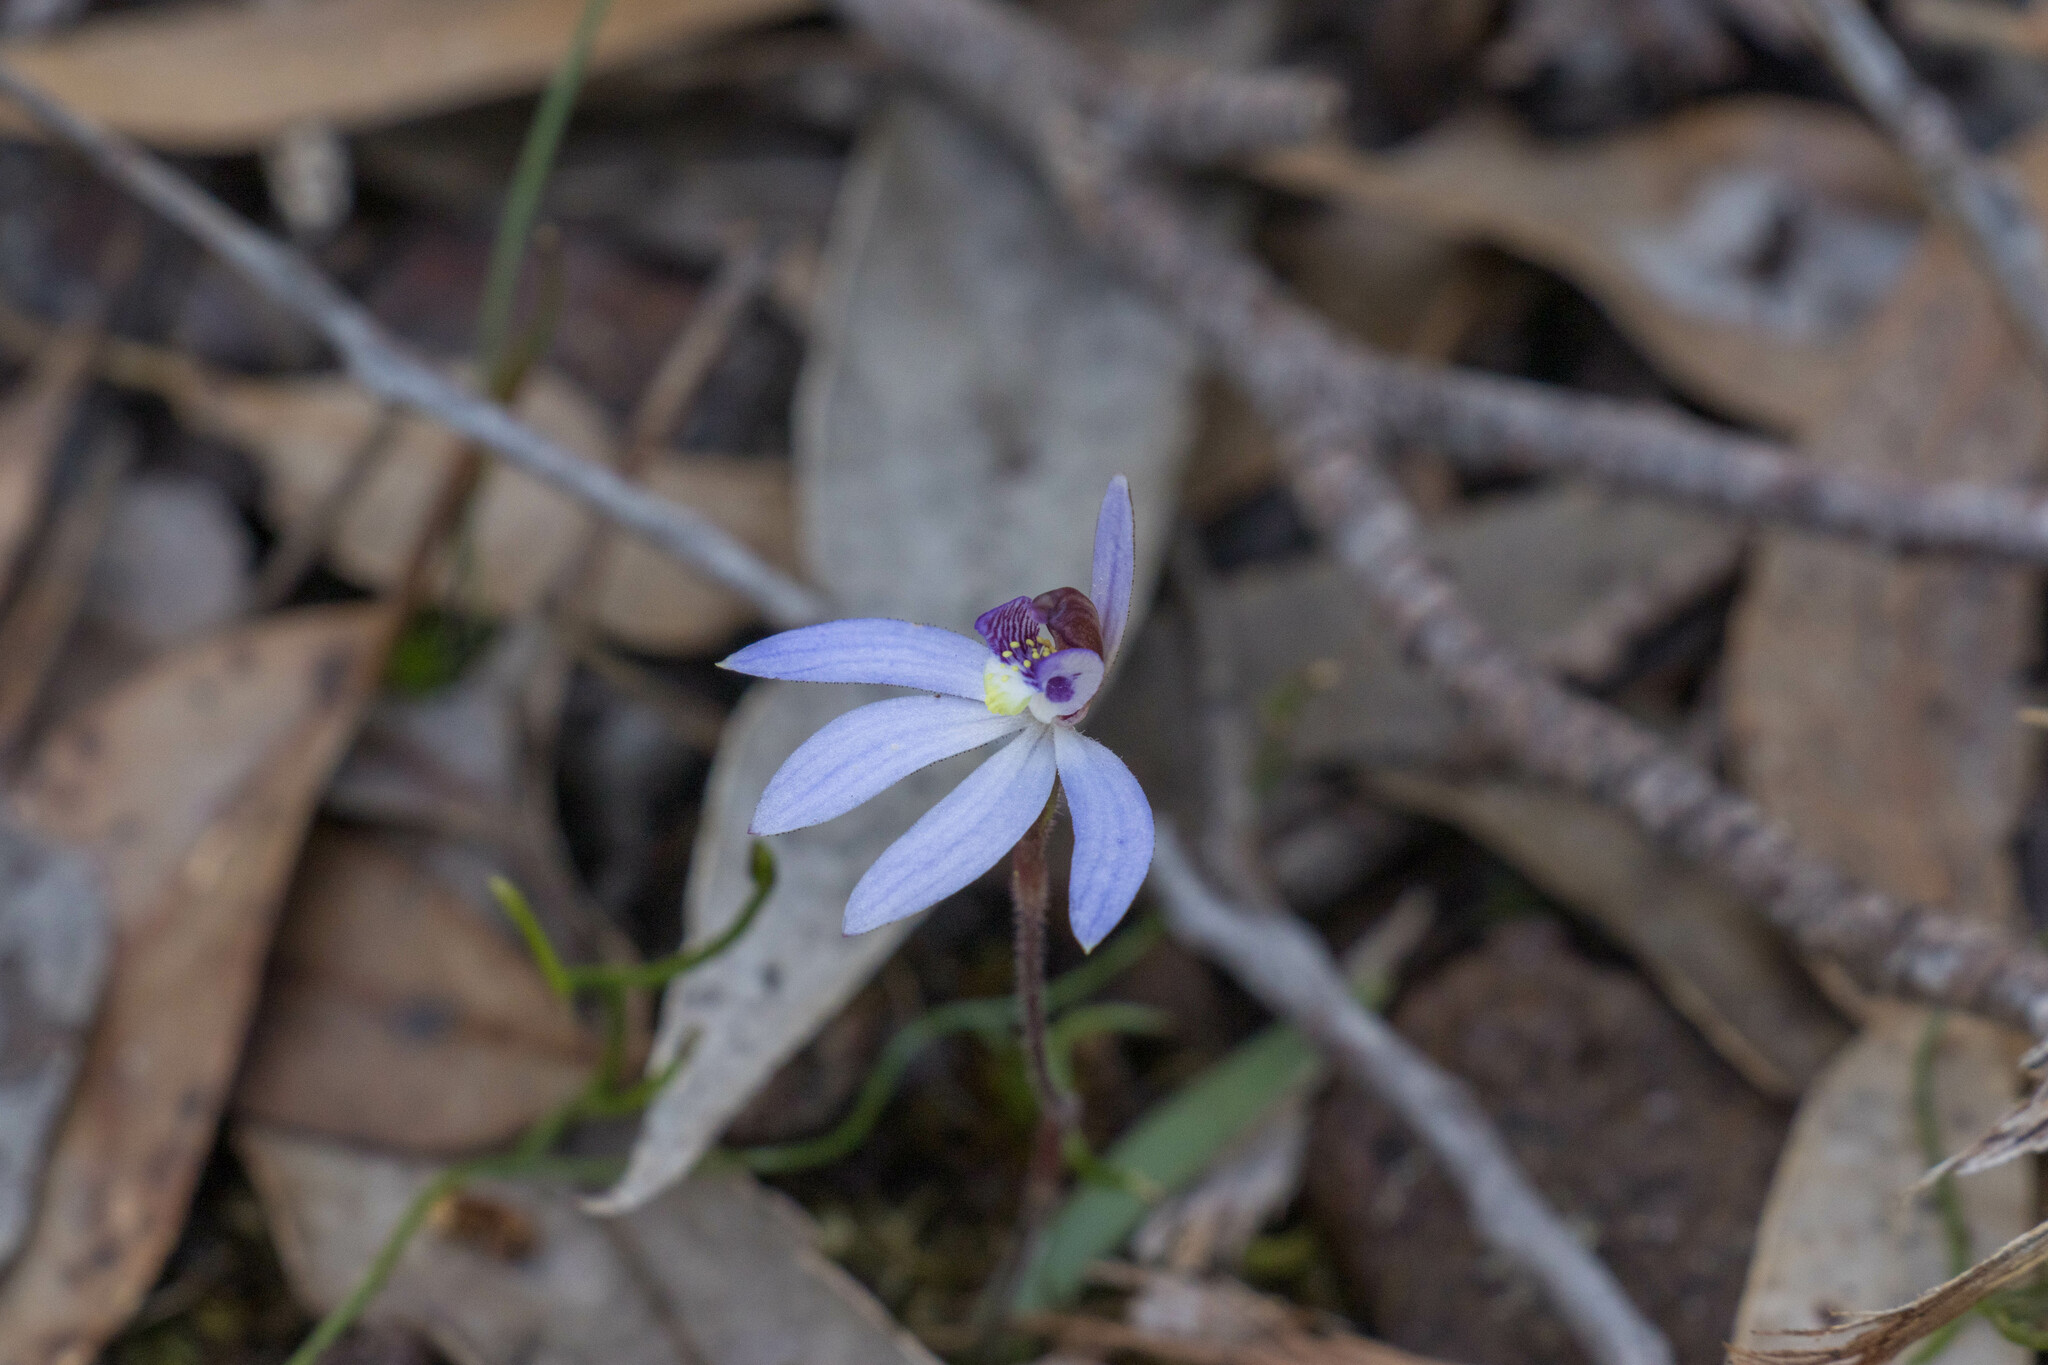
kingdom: Plantae
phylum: Tracheophyta
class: Liliopsida
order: Asparagales
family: Orchidaceae
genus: Caladenia
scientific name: Caladenia caerulea
